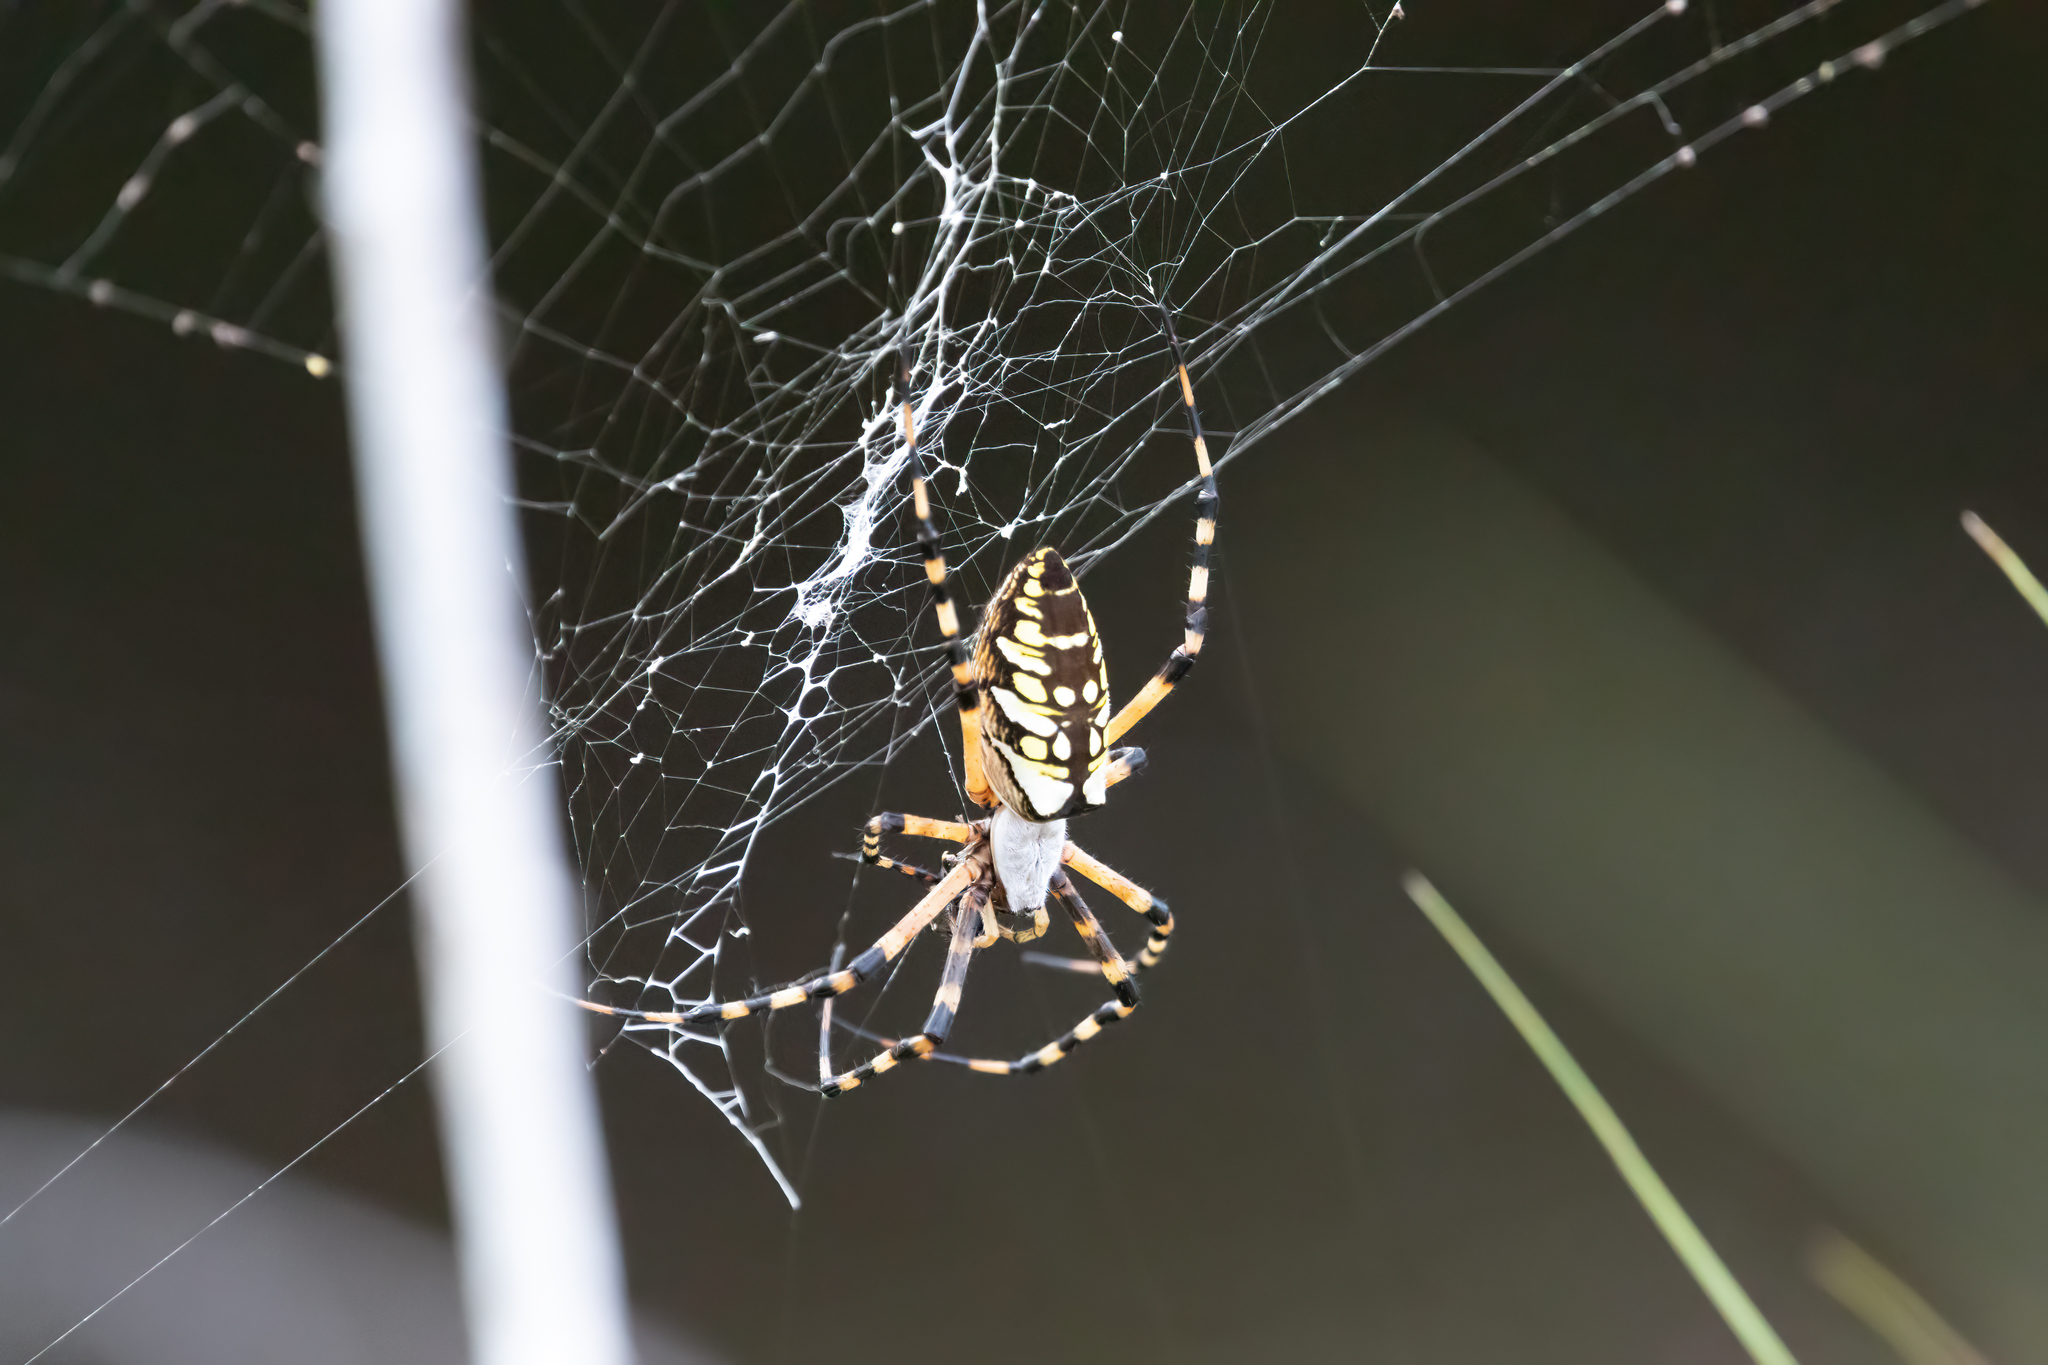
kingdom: Animalia
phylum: Arthropoda
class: Arachnida
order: Araneae
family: Araneidae
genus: Argiope
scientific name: Argiope aurantia
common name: Orb weavers
